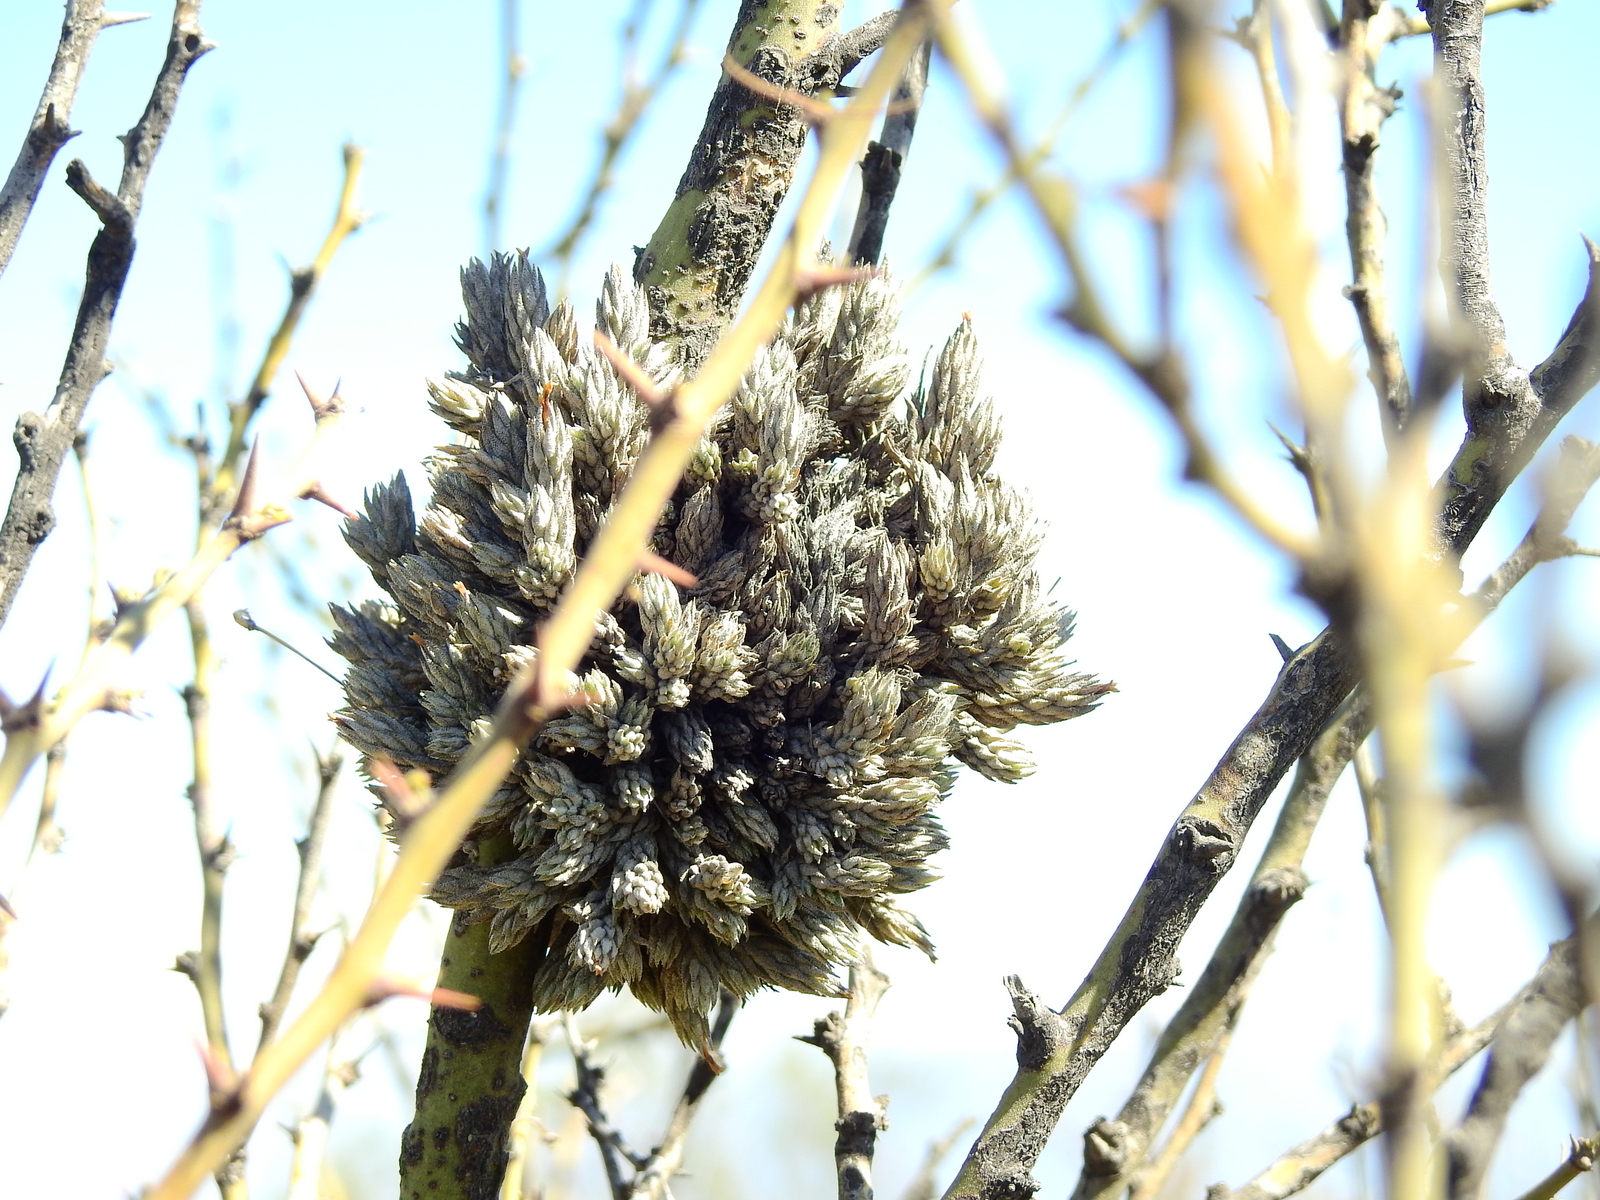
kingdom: Plantae
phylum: Tracheophyta
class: Liliopsida
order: Poales
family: Bromeliaceae
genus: Tillandsia
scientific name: Tillandsia pedicellata
